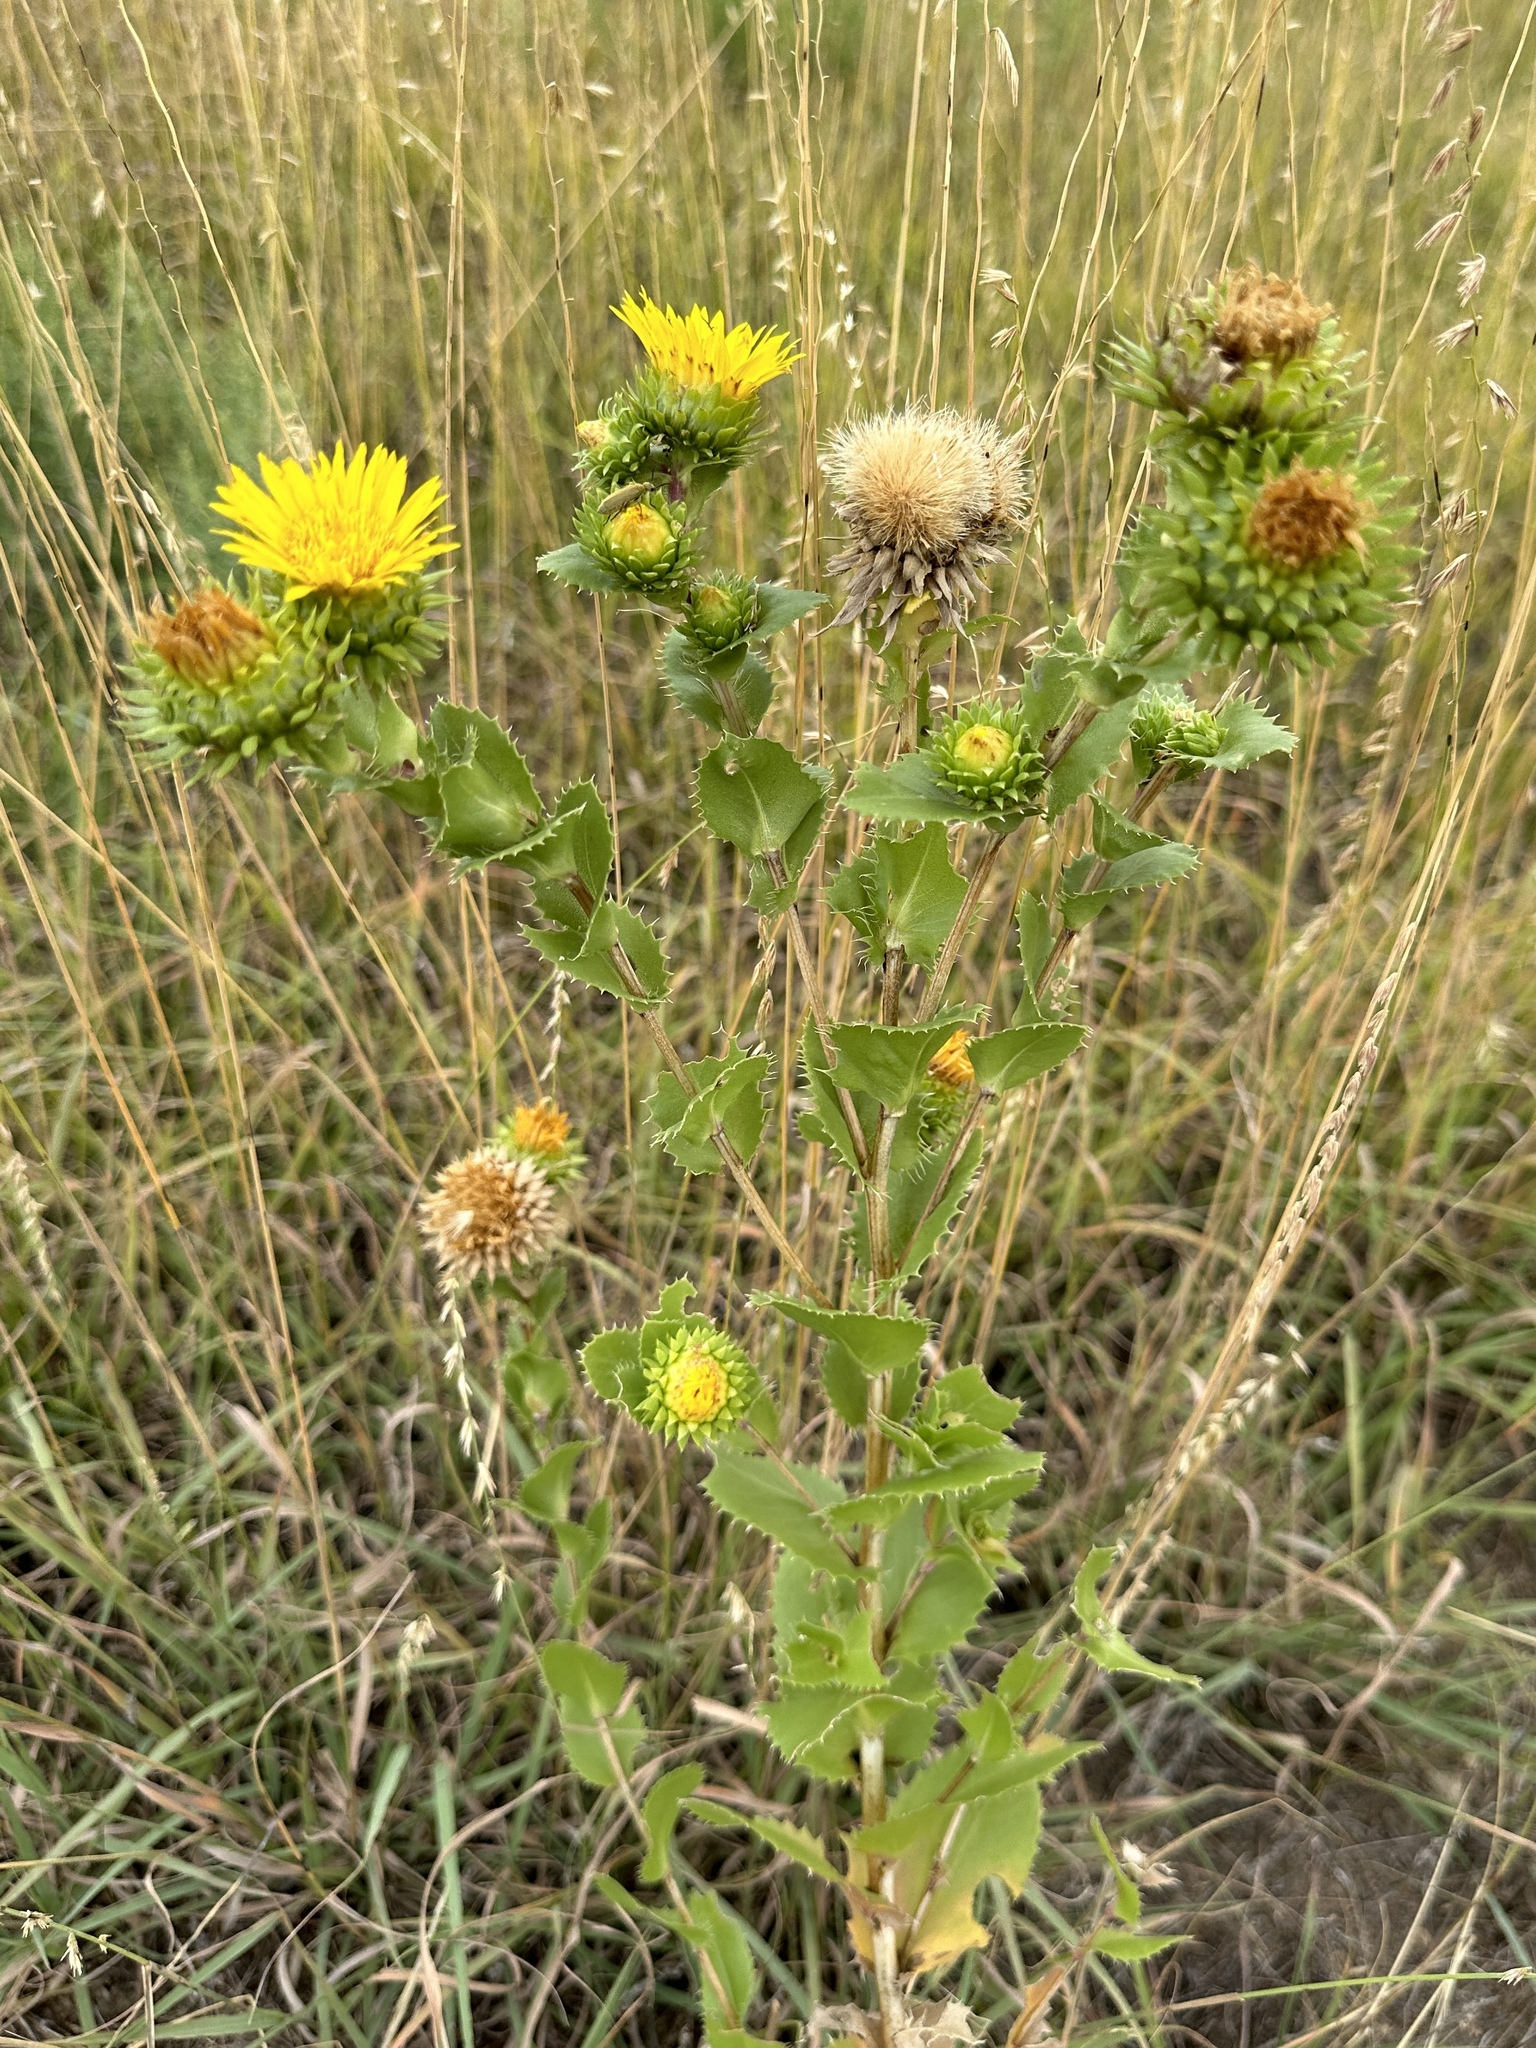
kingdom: Plantae
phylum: Tracheophyta
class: Magnoliopsida
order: Asterales
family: Asteraceae
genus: Grindelia
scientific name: Grindelia ciliata
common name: Goldenweed
